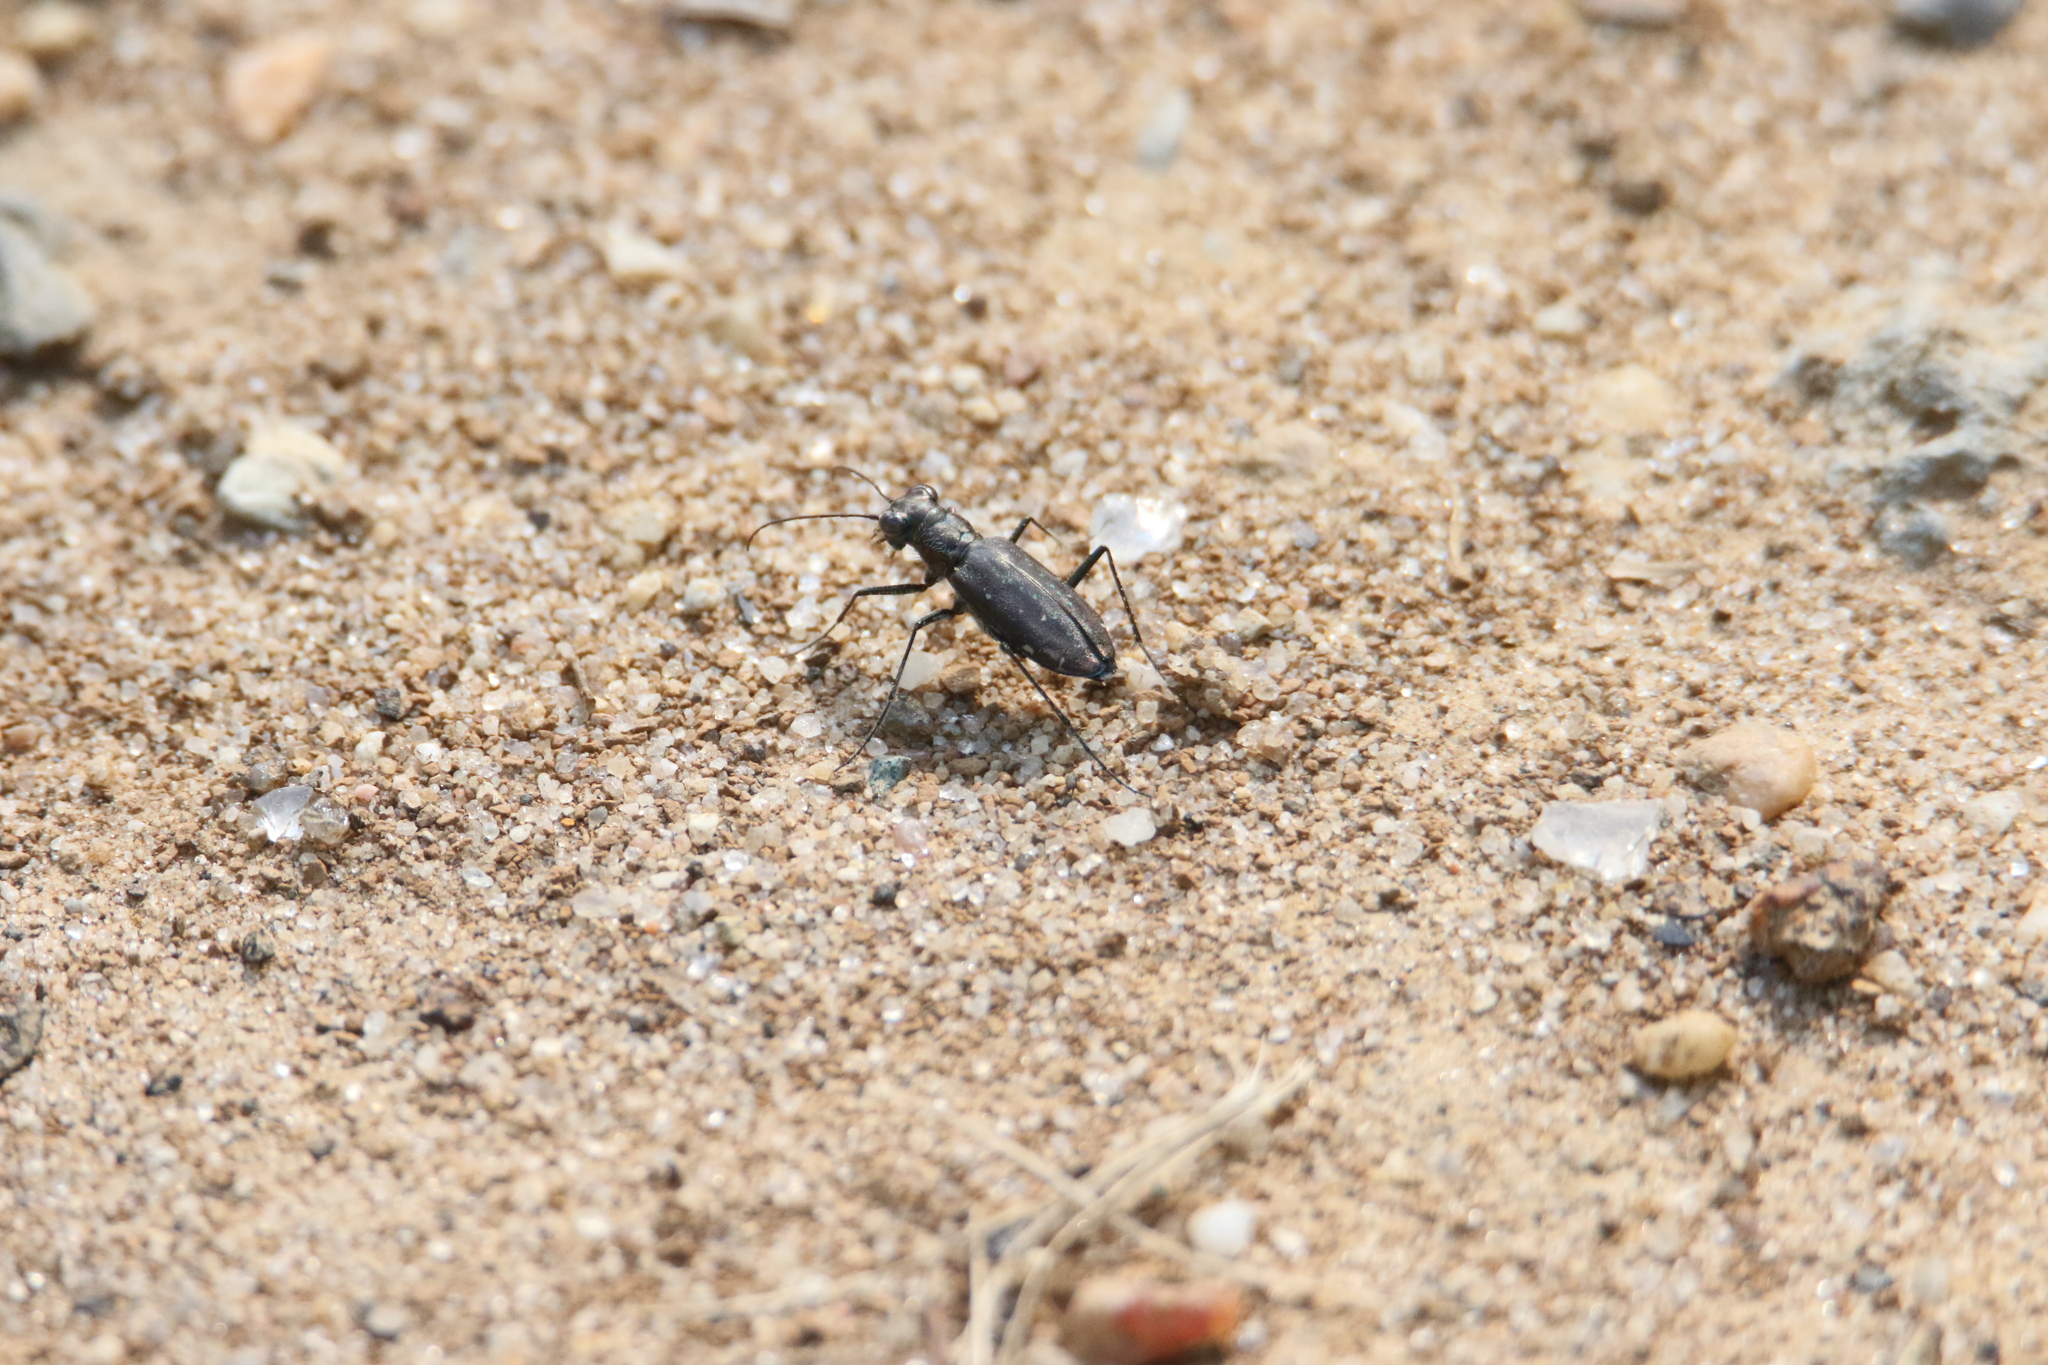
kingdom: Animalia
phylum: Arthropoda
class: Insecta
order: Coleoptera
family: Carabidae
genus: Cicindela
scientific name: Cicindela punctulata
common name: Punctured tiger beetle
